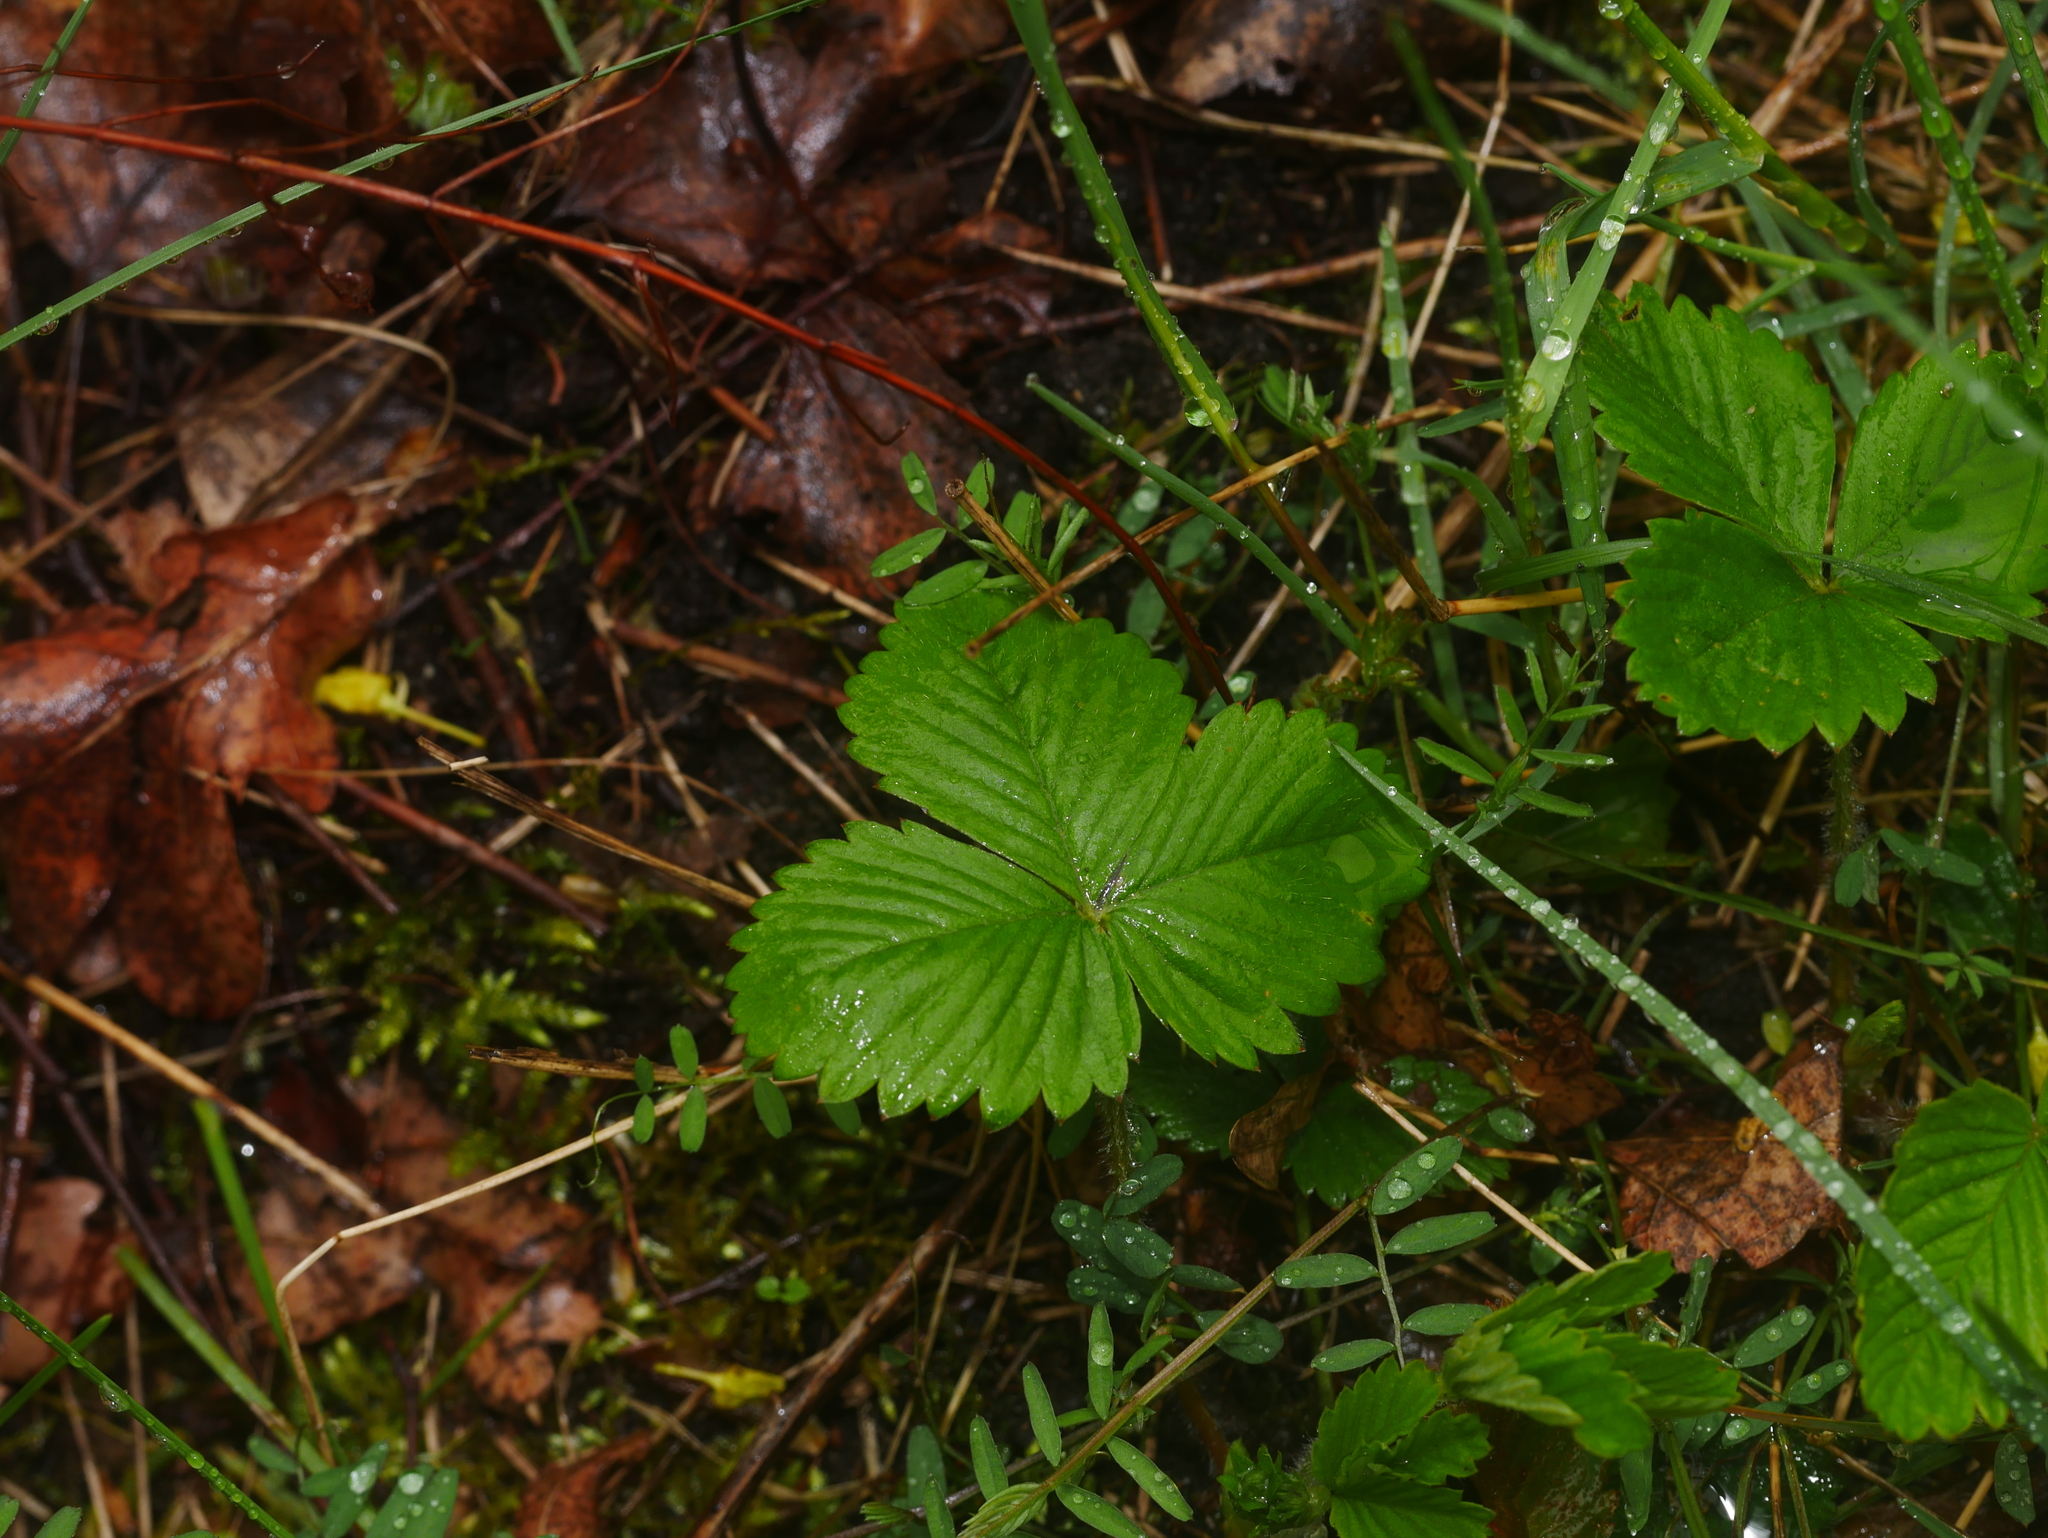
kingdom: Plantae
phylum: Tracheophyta
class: Magnoliopsida
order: Rosales
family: Rosaceae
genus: Fragaria
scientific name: Fragaria vesca
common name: Wild strawberry
